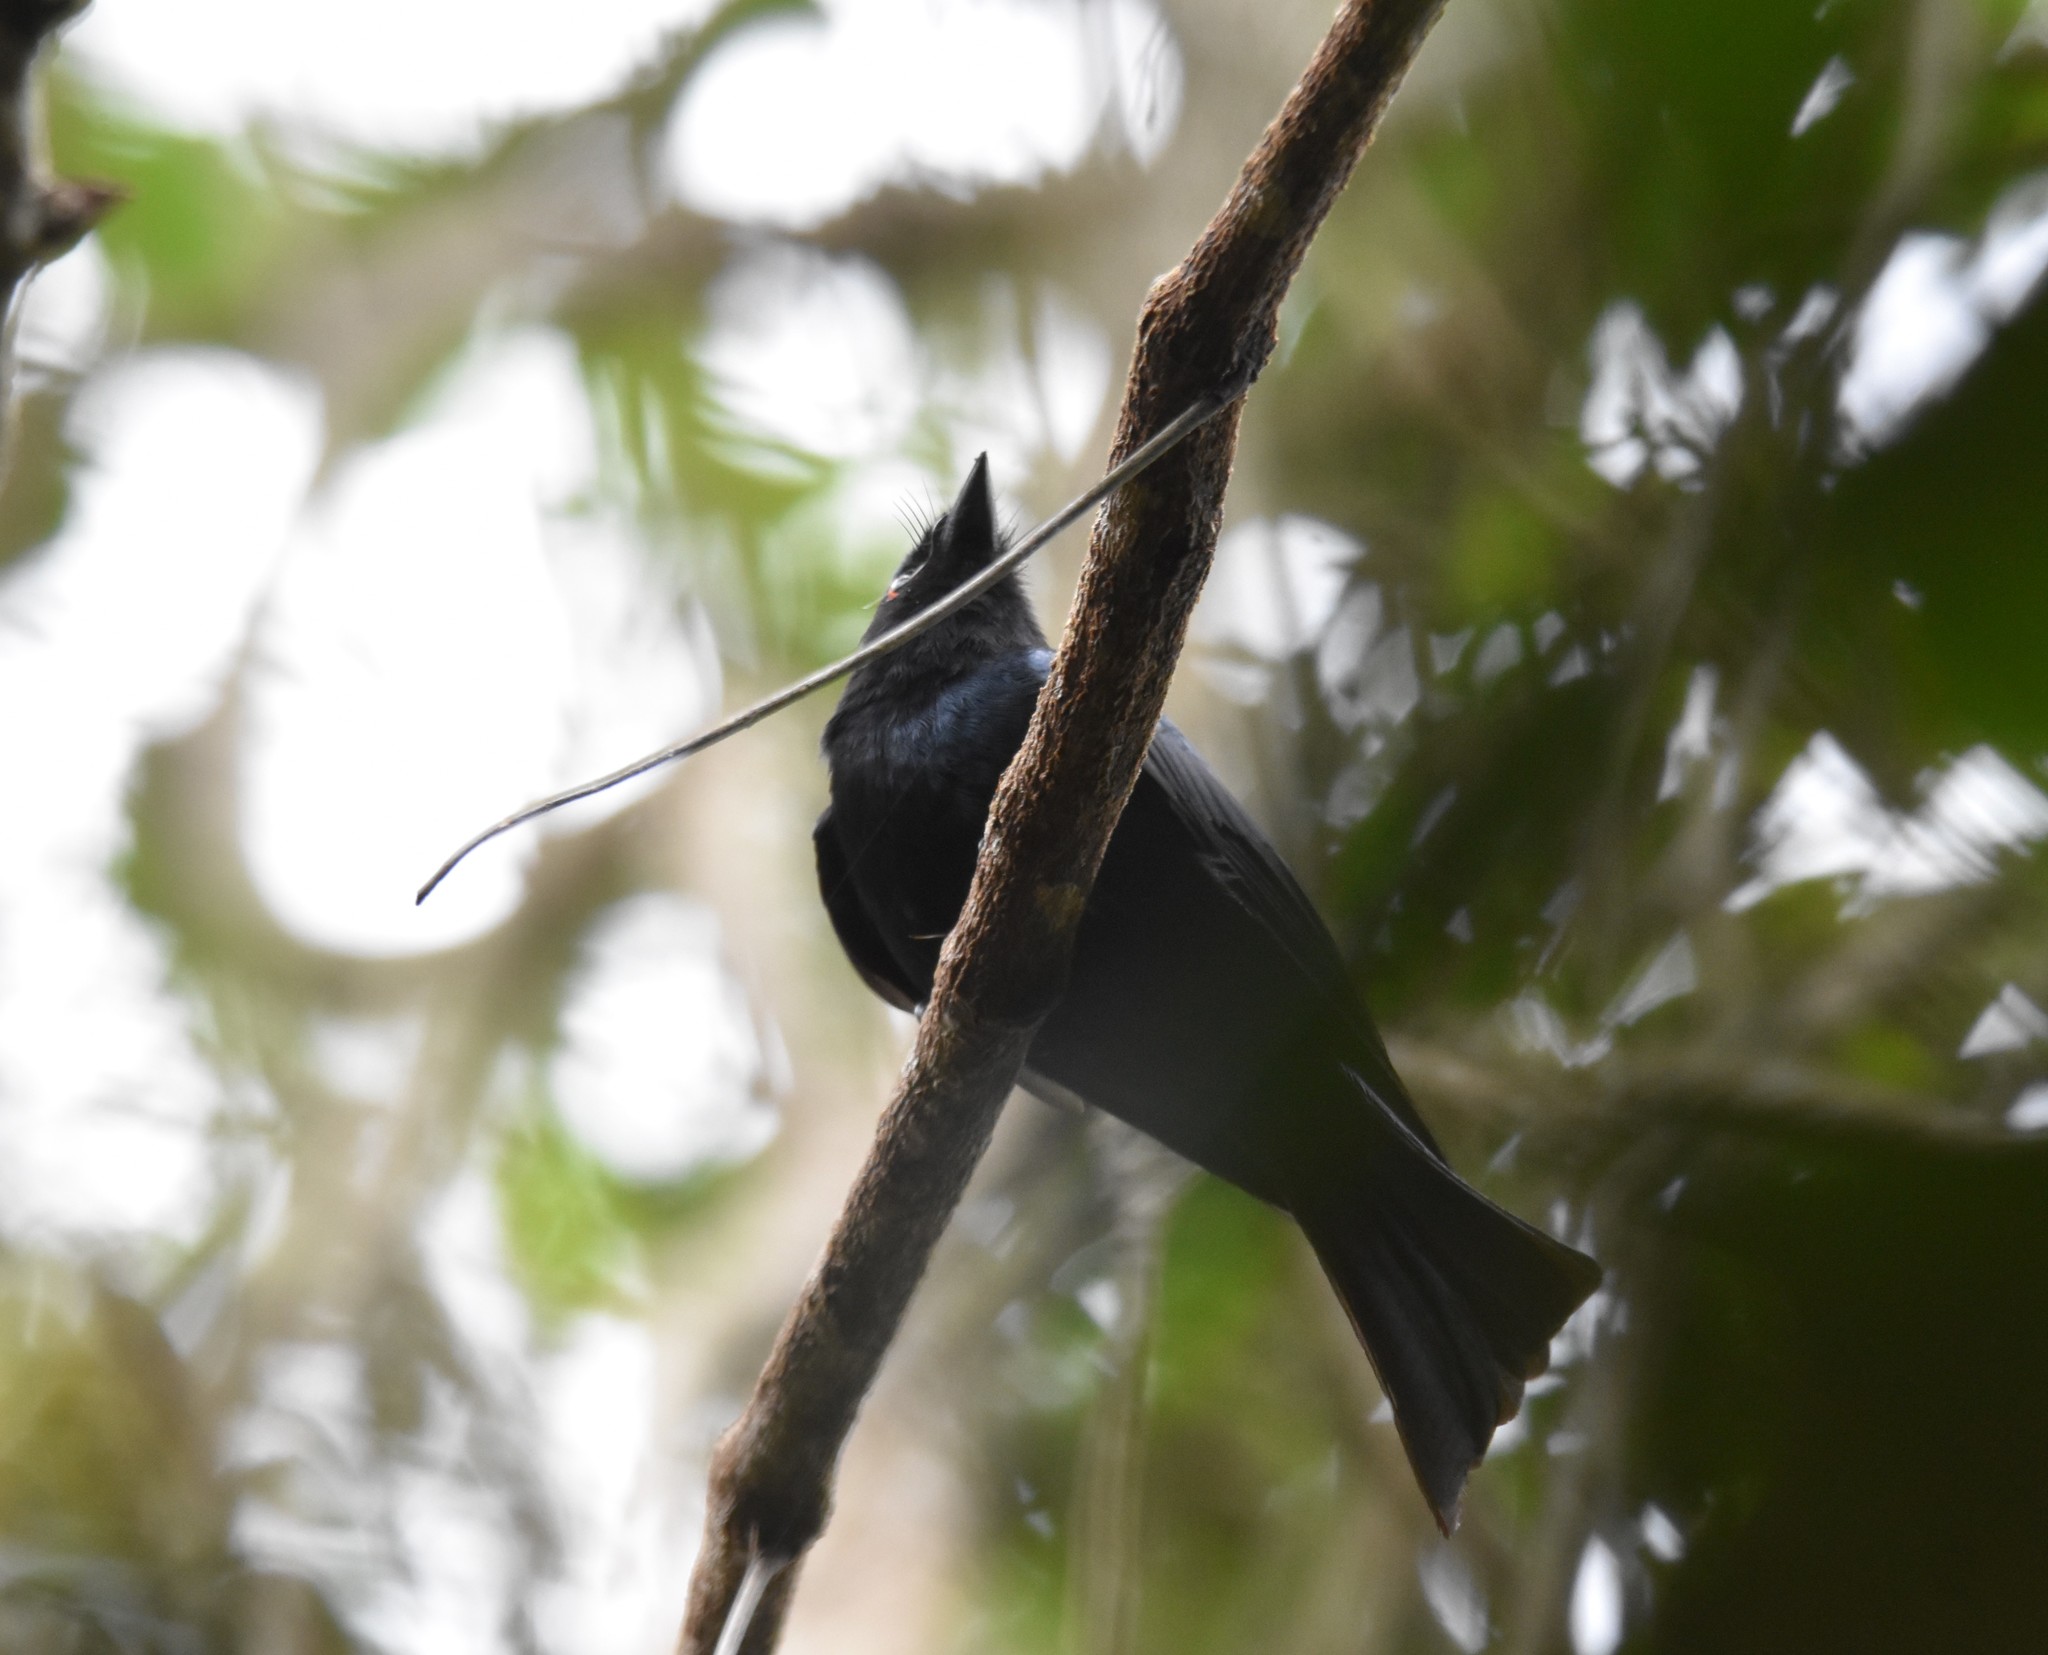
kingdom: Animalia
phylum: Chordata
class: Aves
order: Passeriformes
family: Dicruridae
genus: Dicrurus
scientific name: Dicrurus ludwigii
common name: Square-tailed drongo
